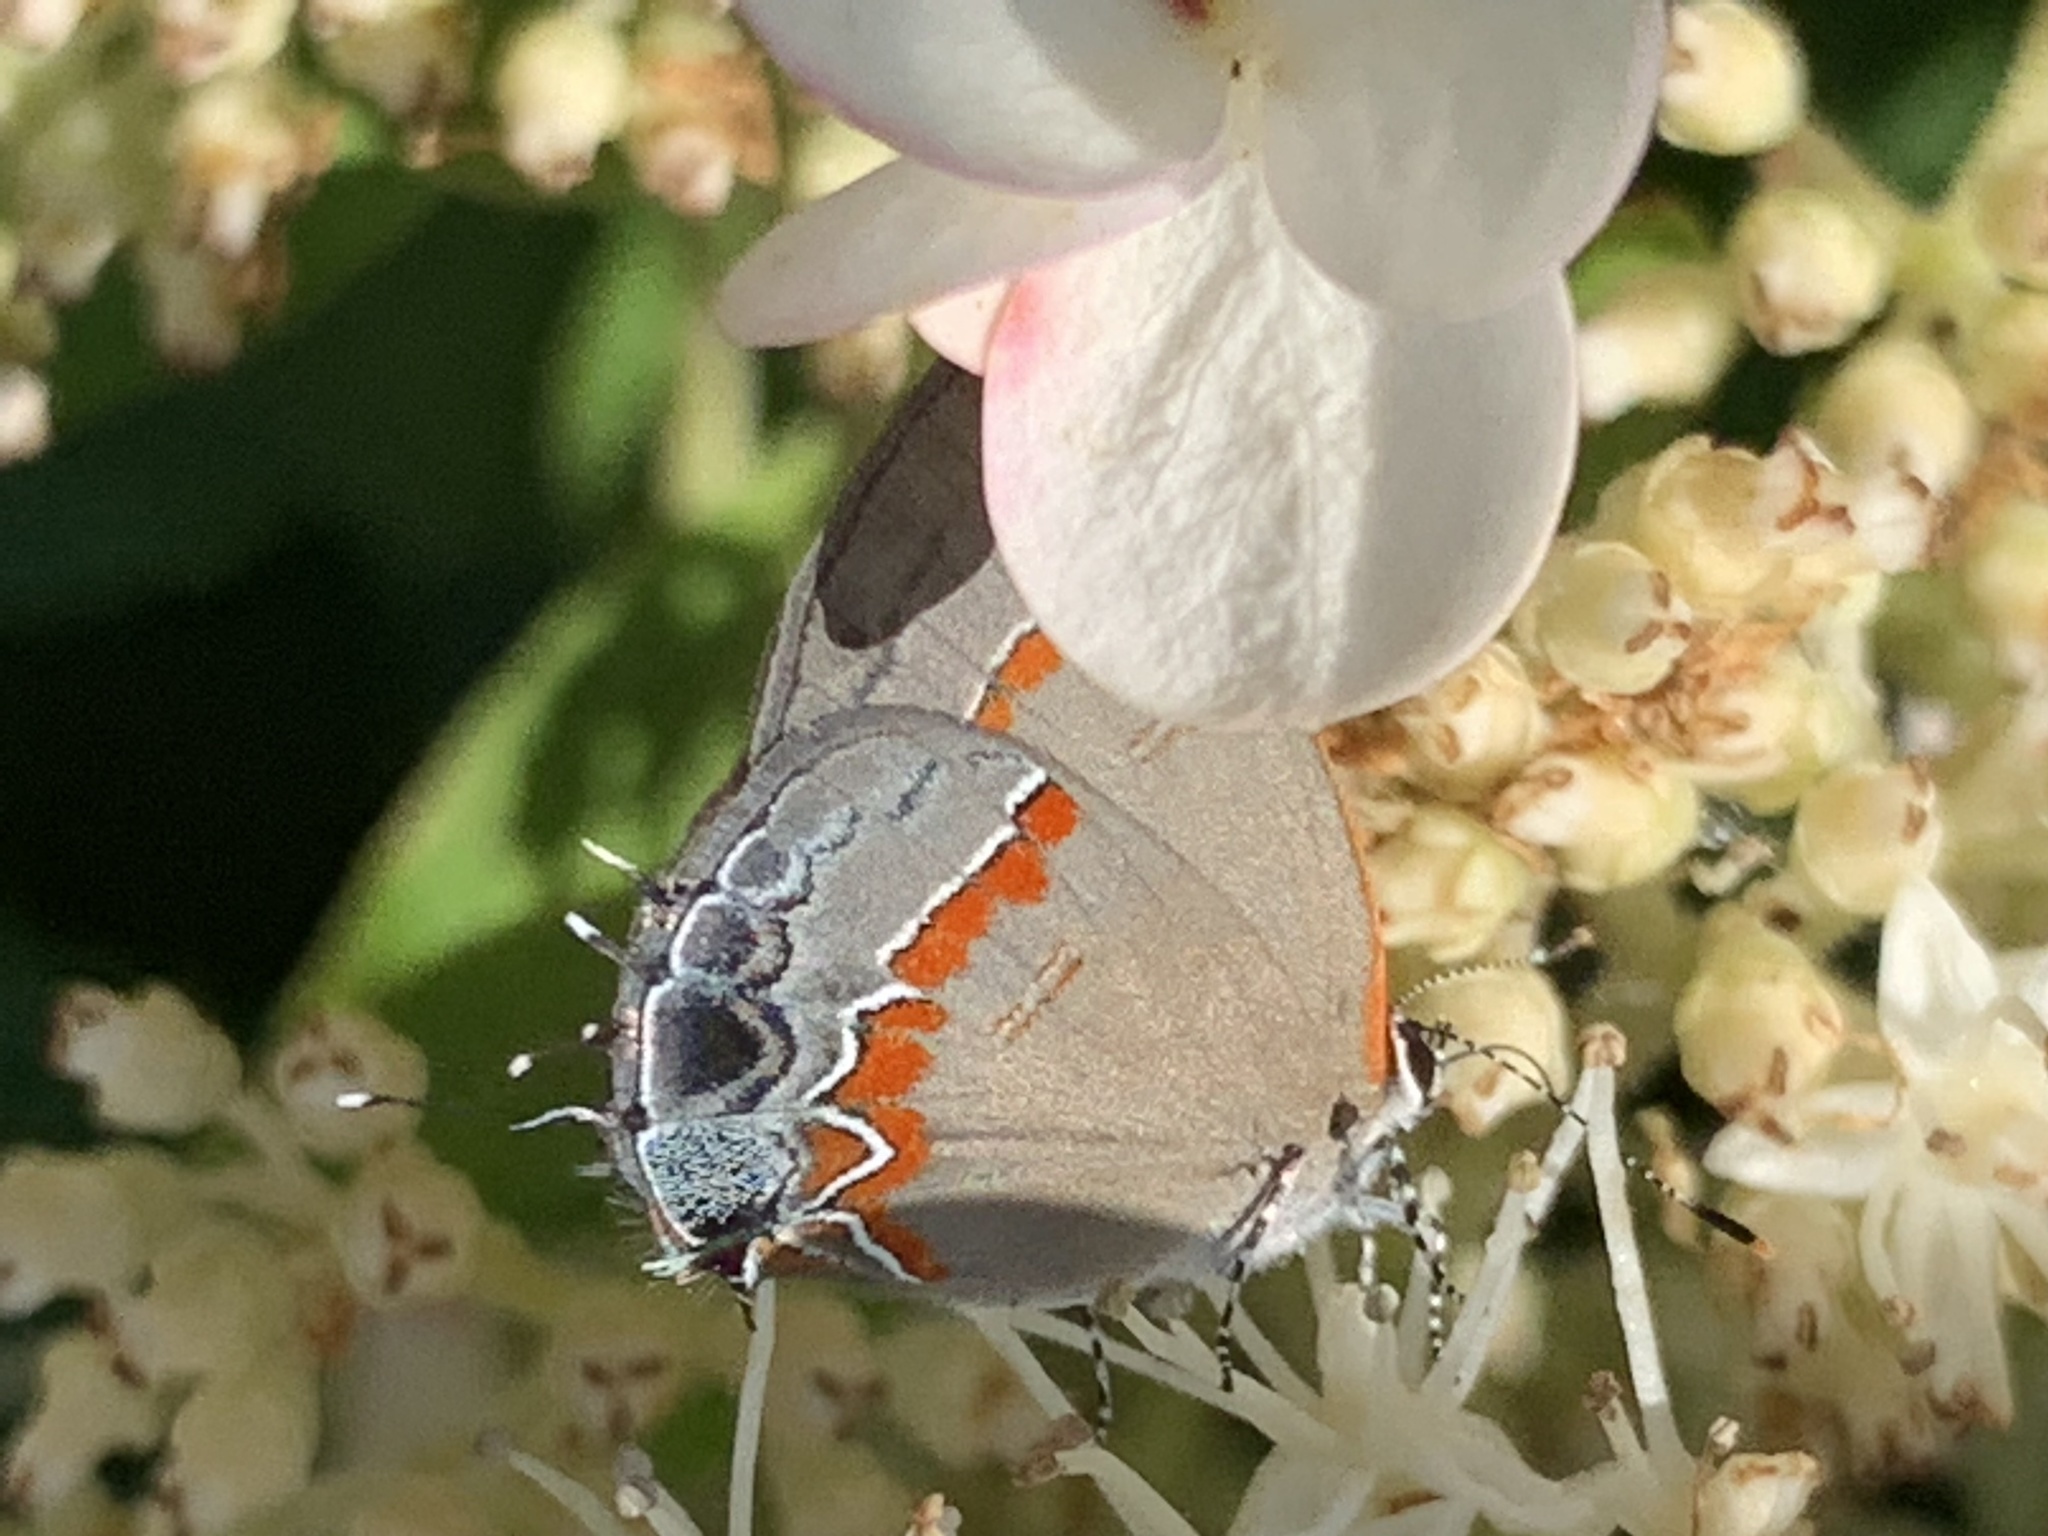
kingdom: Animalia
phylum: Arthropoda
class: Insecta
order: Lepidoptera
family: Lycaenidae
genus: Calycopis
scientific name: Calycopis cecrops
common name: Red-banded hairstreak
